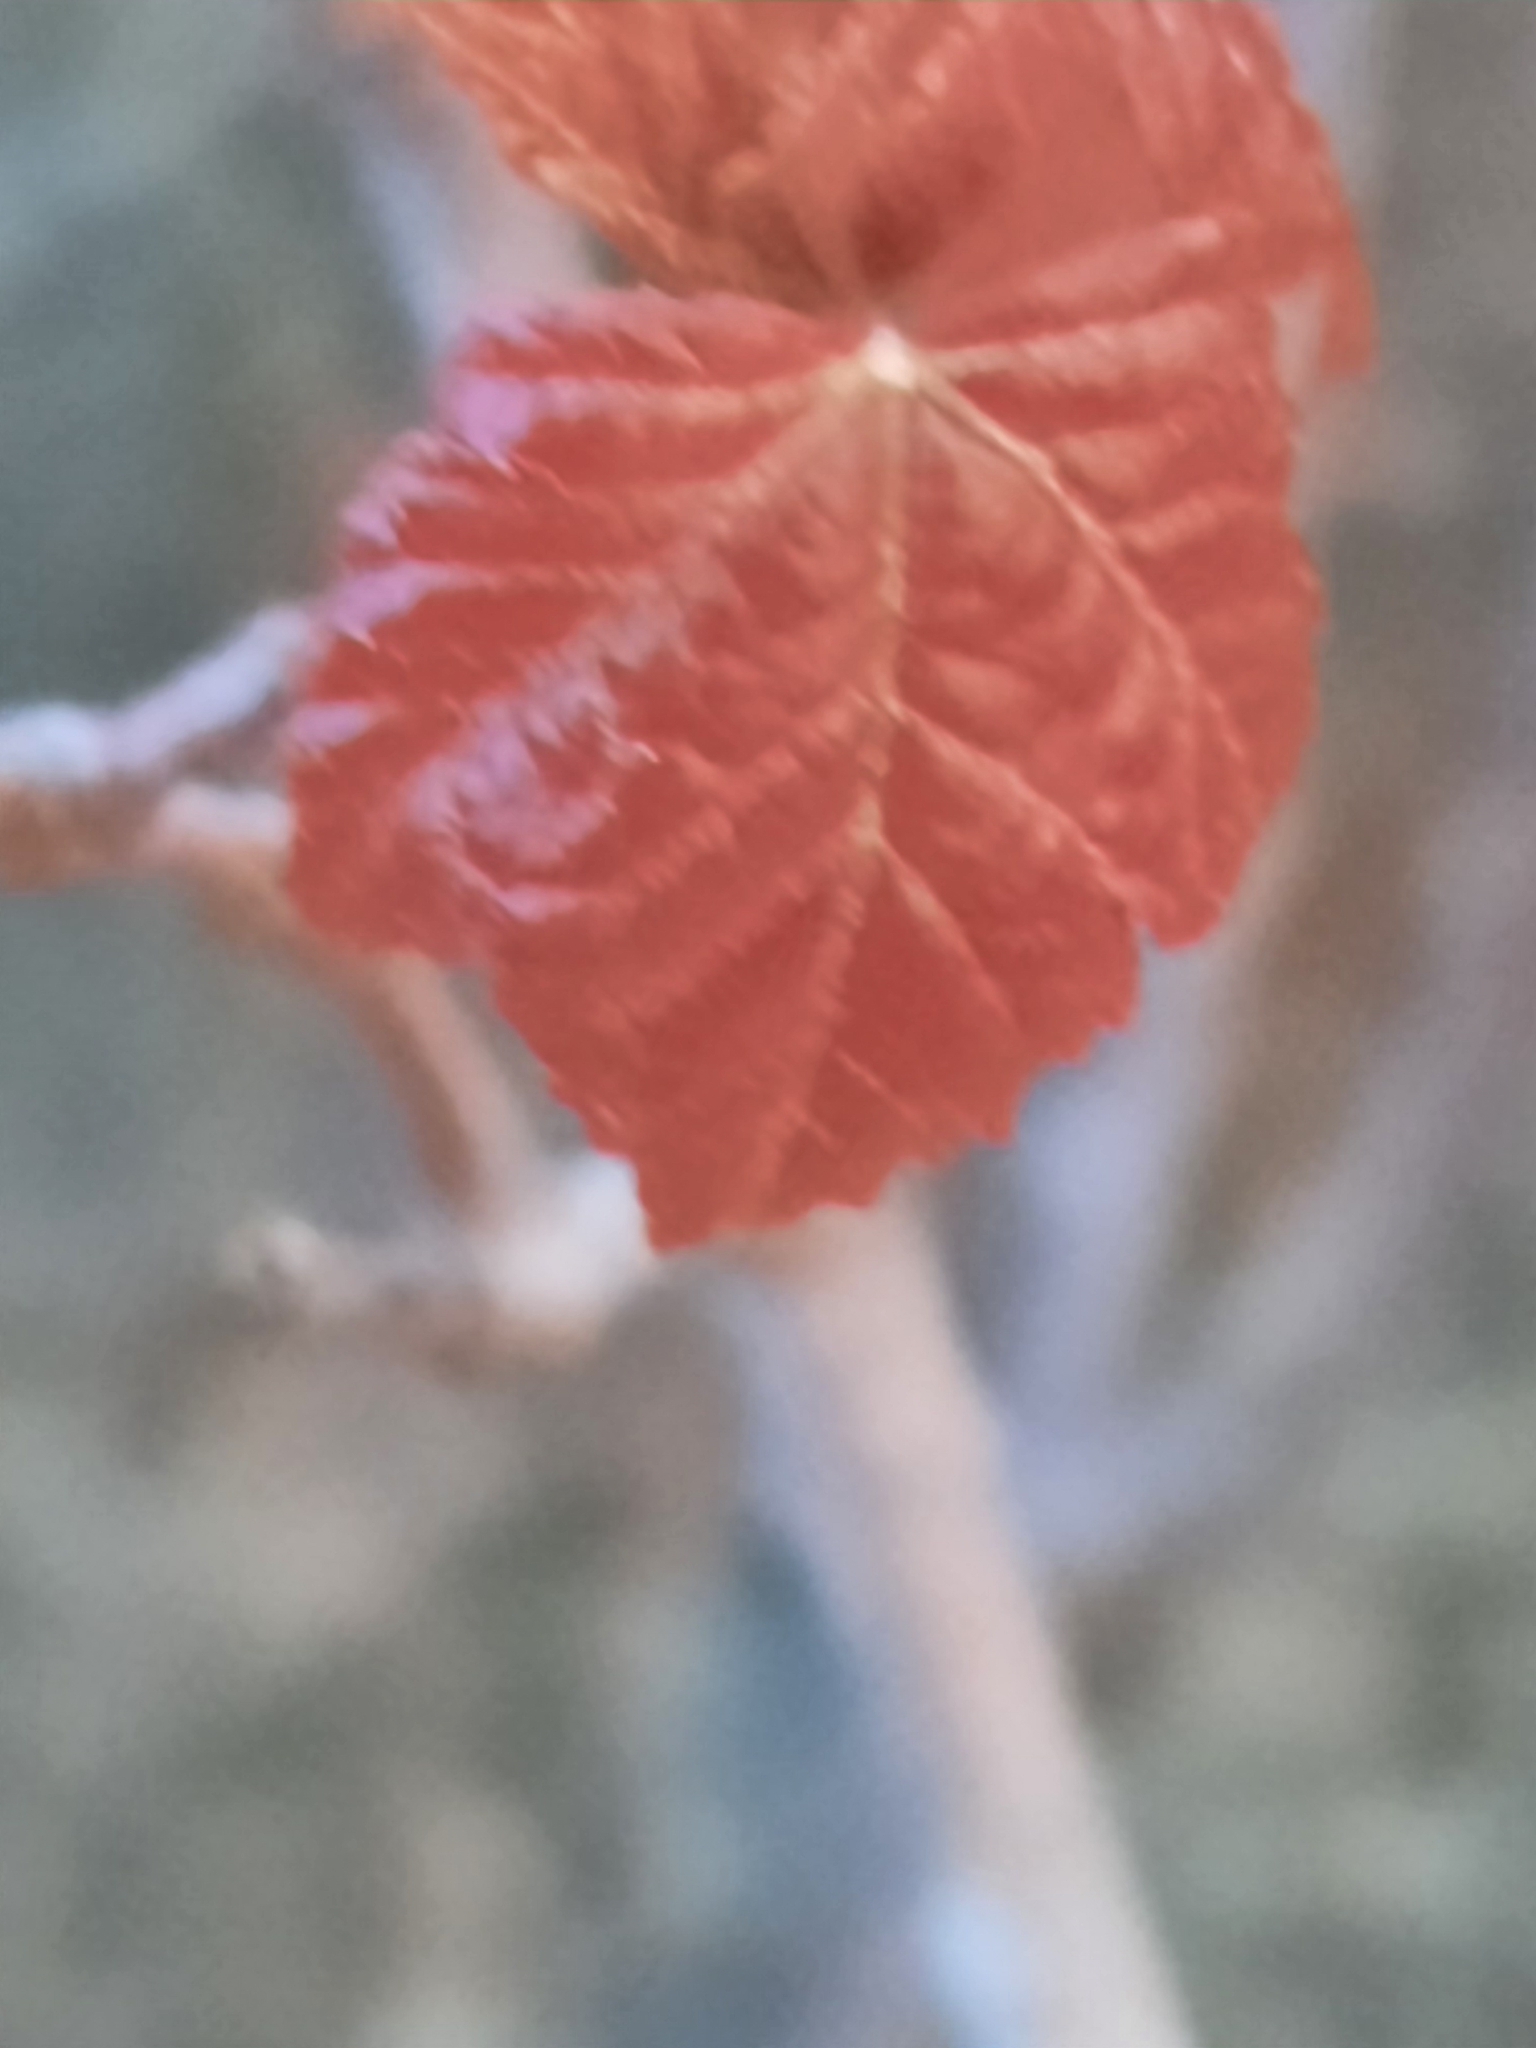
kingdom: Plantae
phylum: Tracheophyta
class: Magnoliopsida
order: Sapindales
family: Sapindaceae
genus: Acer
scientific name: Acer rubrum
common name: Red maple
